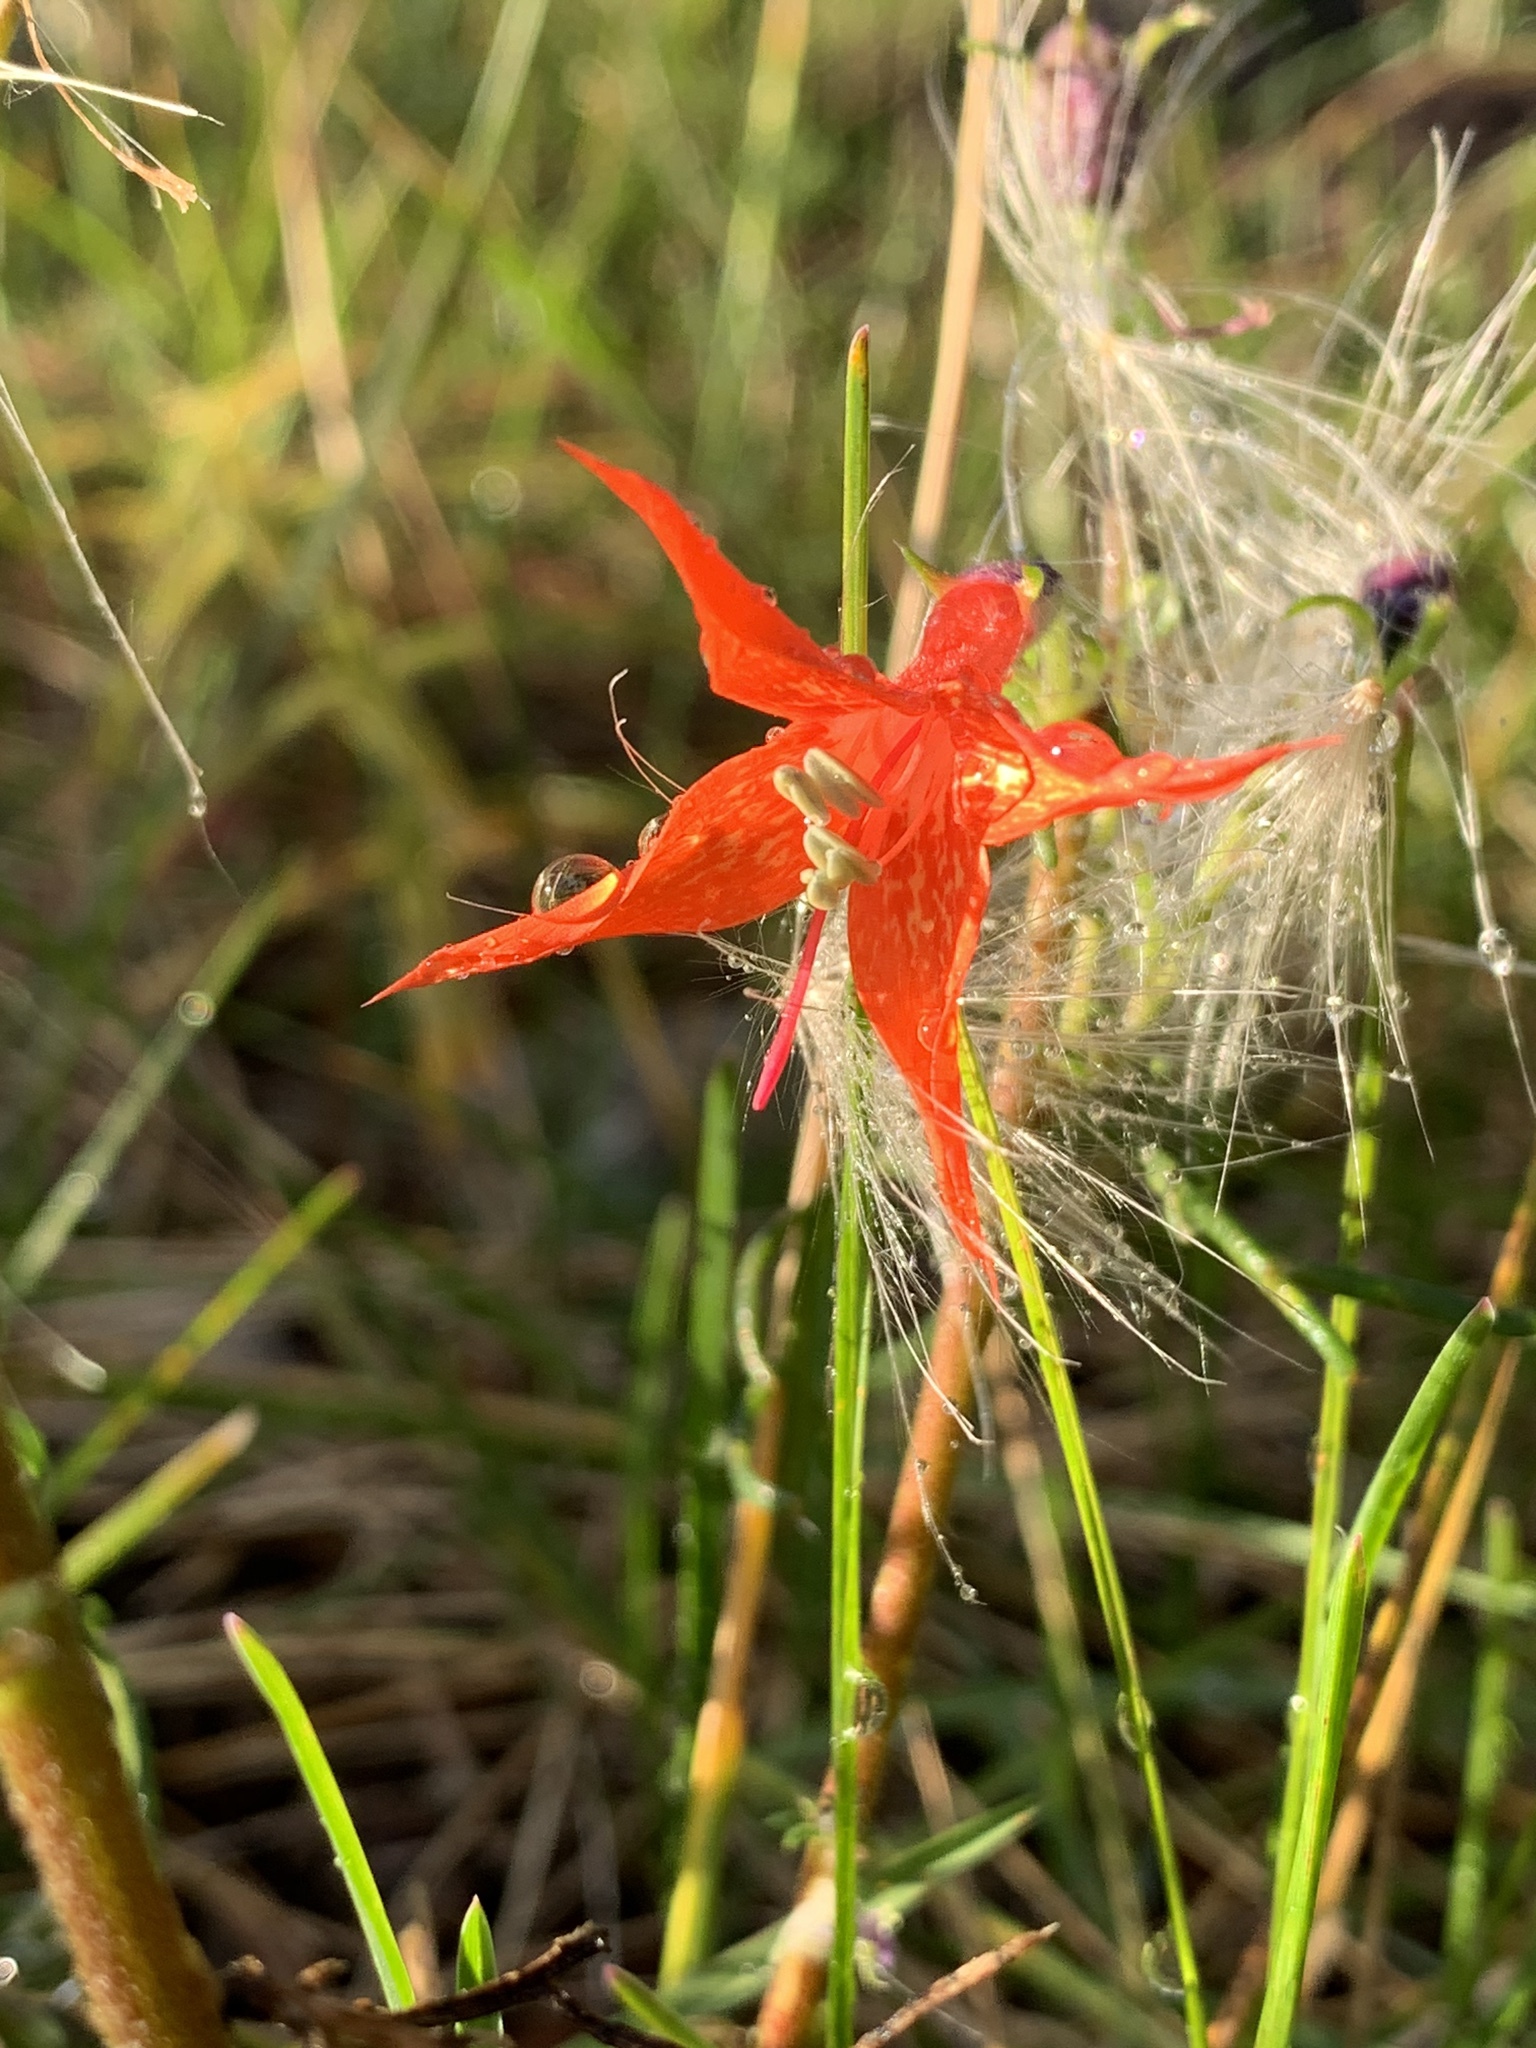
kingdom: Plantae
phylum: Tracheophyta
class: Magnoliopsida
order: Ericales
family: Polemoniaceae
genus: Ipomopsis
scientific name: Ipomopsis aggregata
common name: Scarlet gilia
